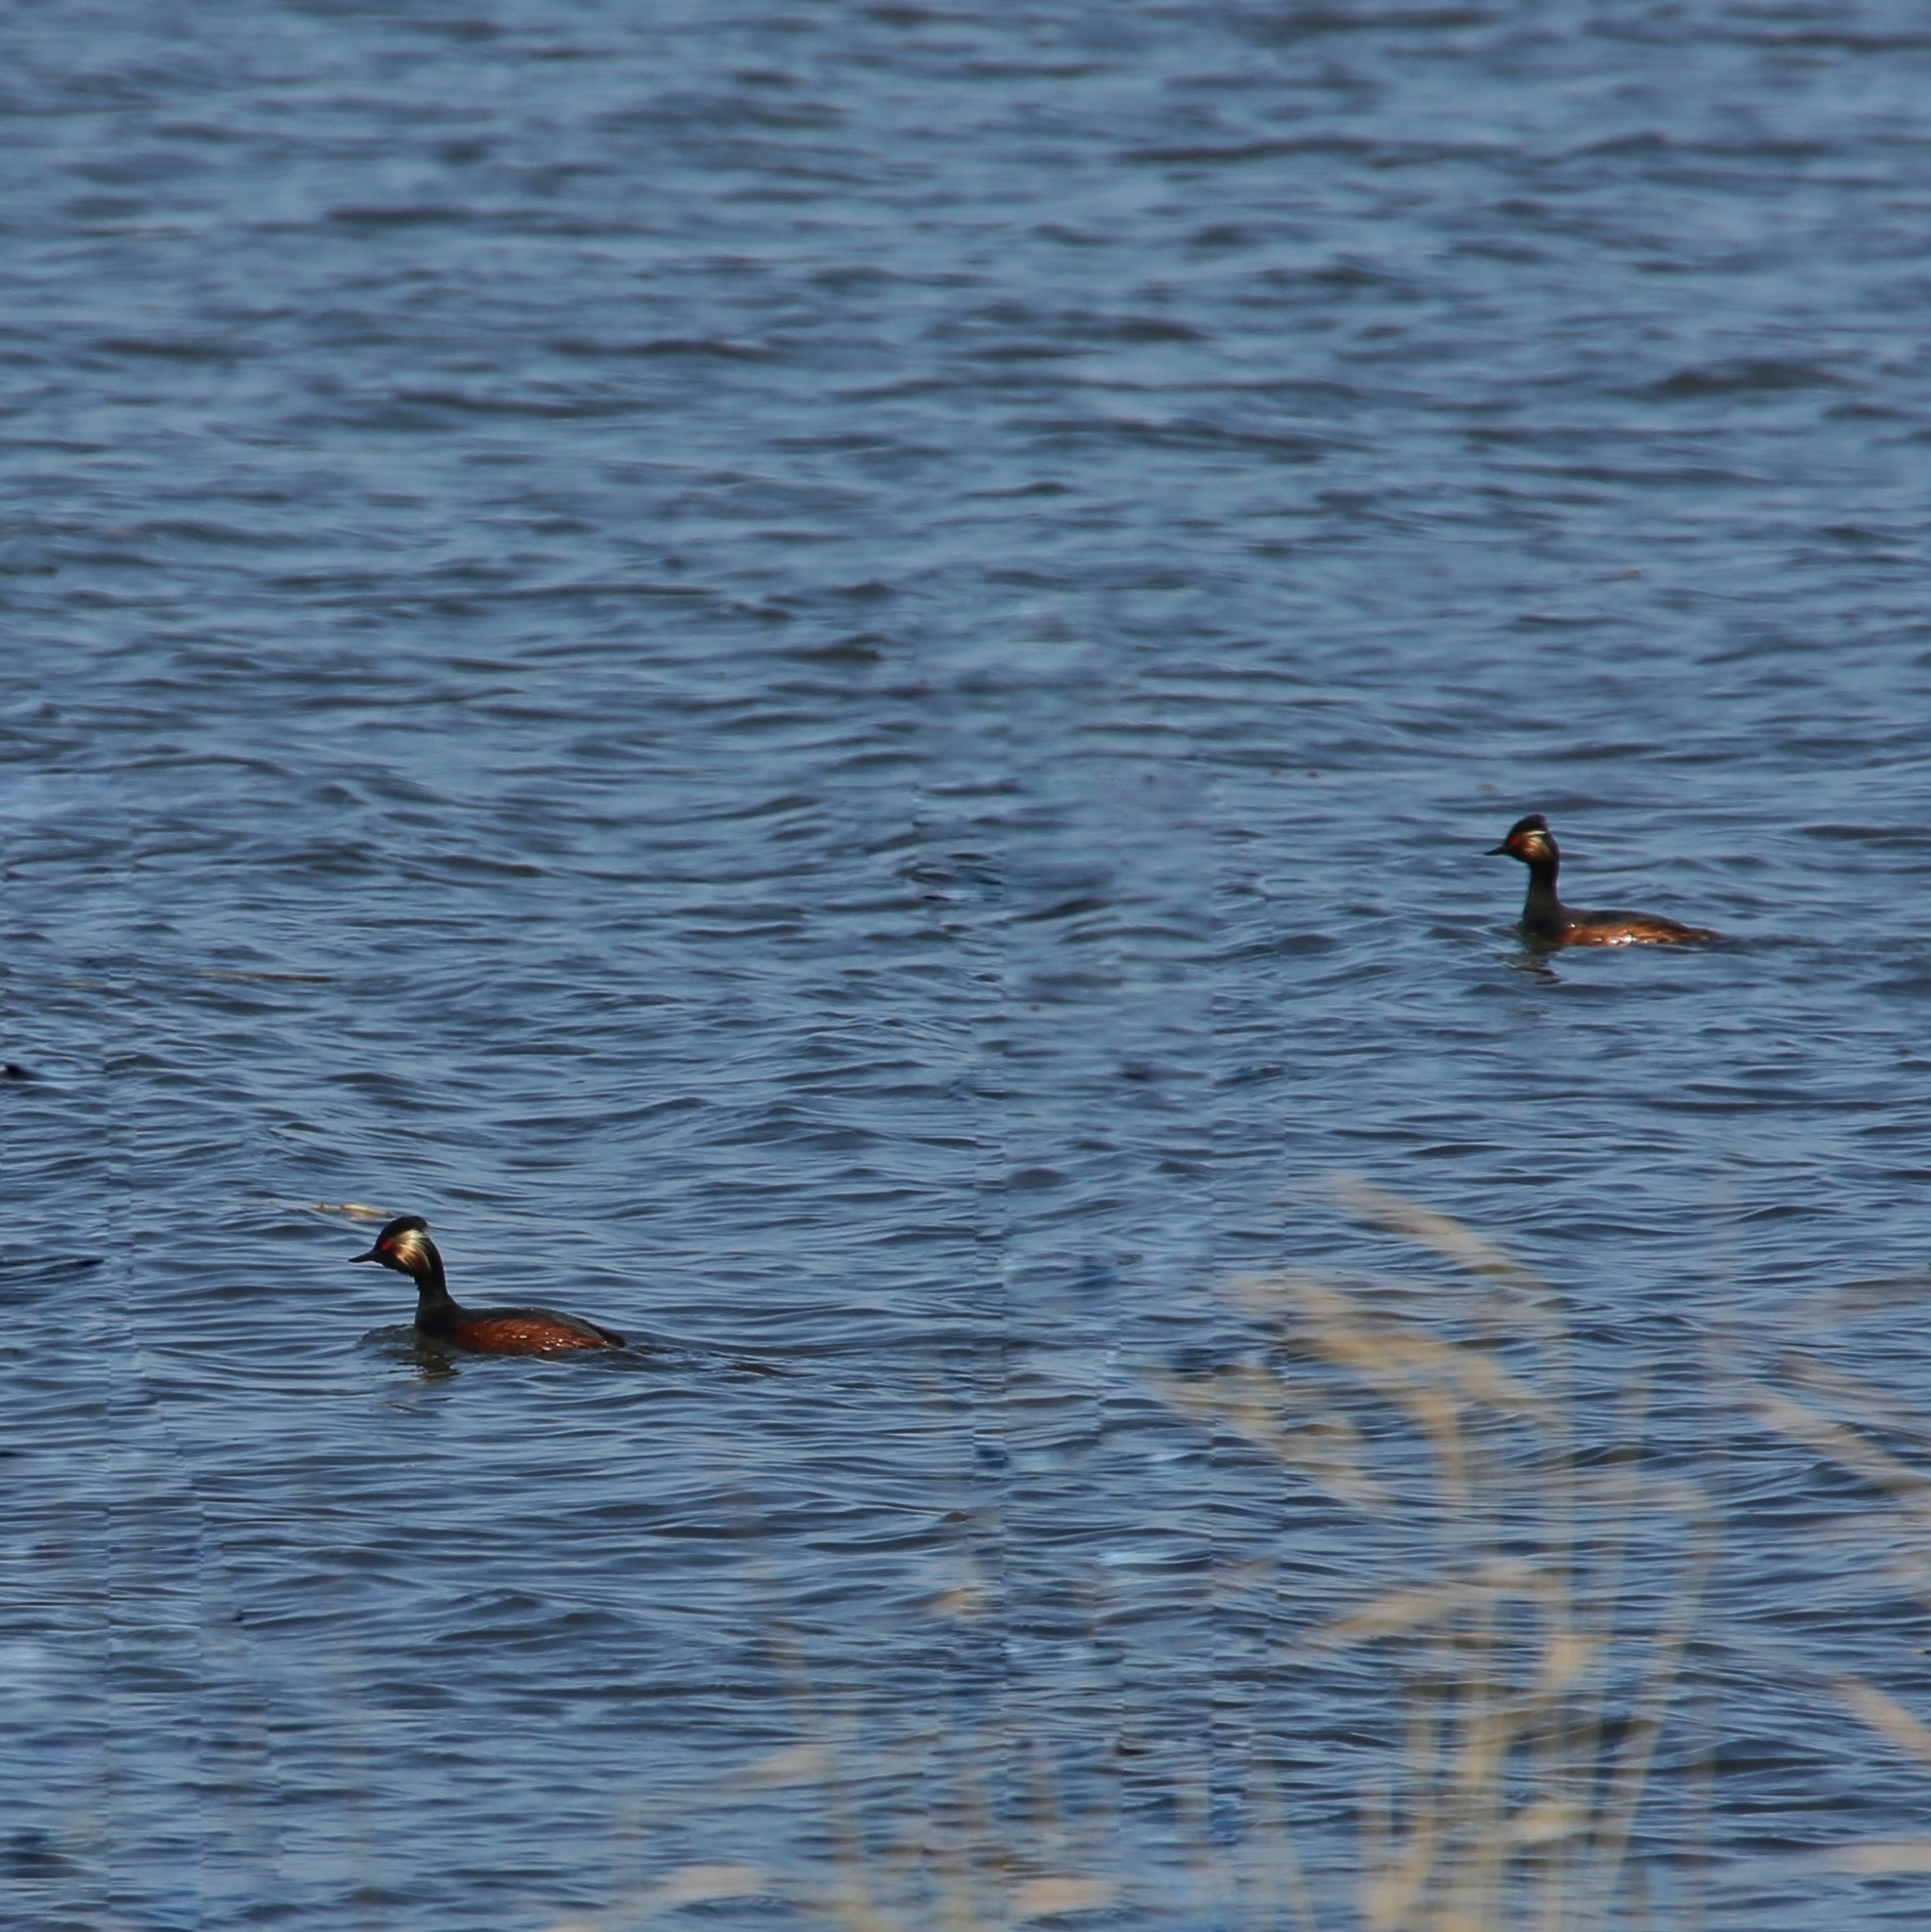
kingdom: Animalia
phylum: Chordata
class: Aves
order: Podicipediformes
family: Podicipedidae
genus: Podiceps
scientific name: Podiceps nigricollis
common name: Black-necked grebe
